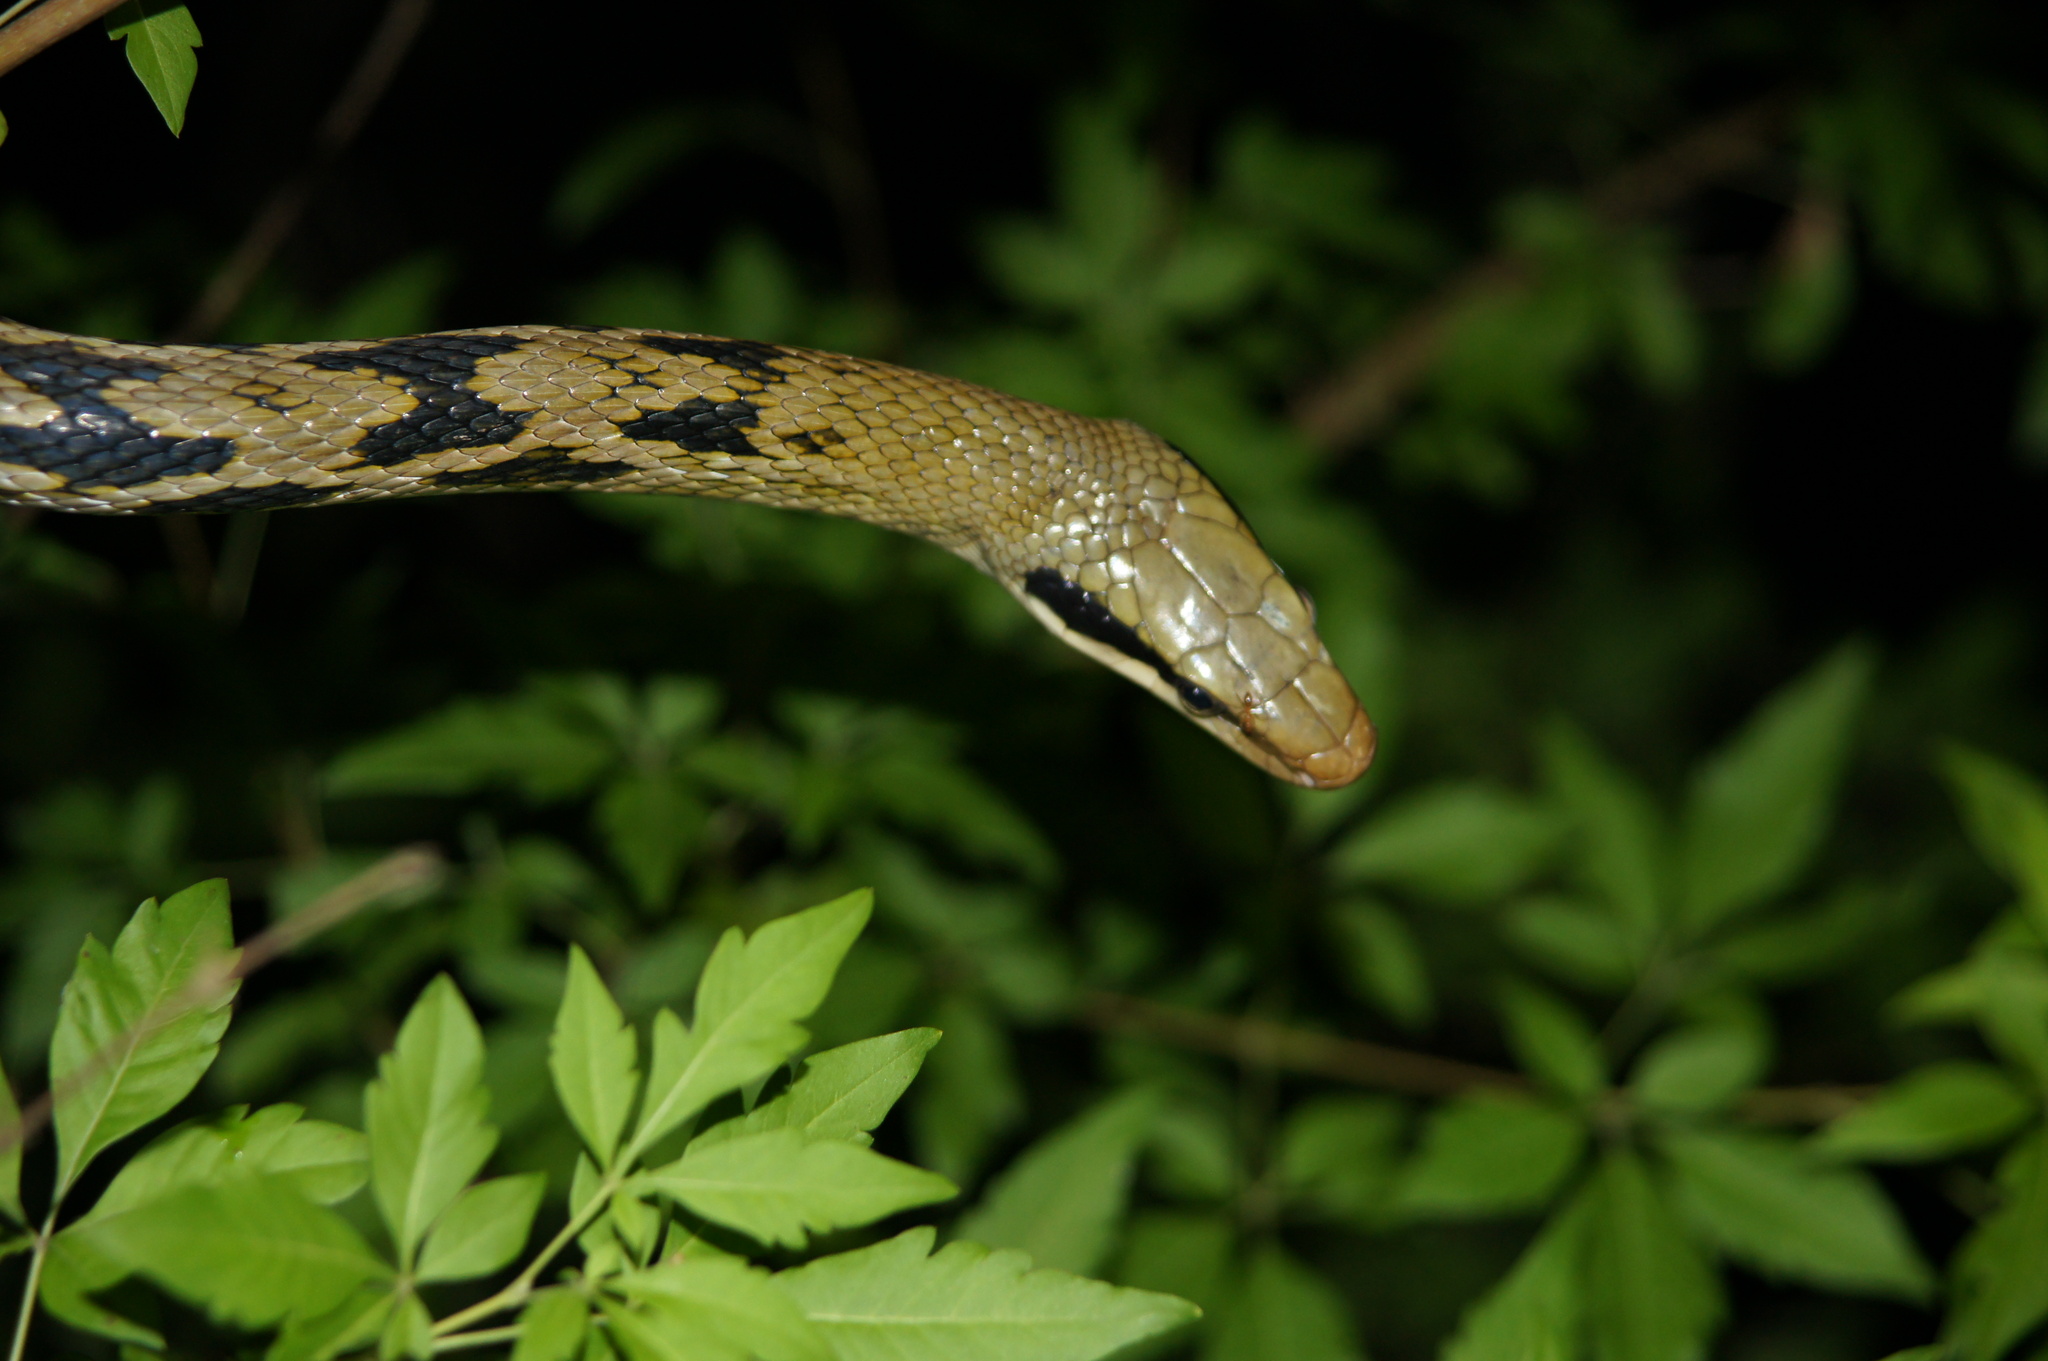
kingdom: Animalia
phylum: Chordata
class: Squamata
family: Colubridae
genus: Elaphe
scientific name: Elaphe taeniura
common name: Beauty snake
